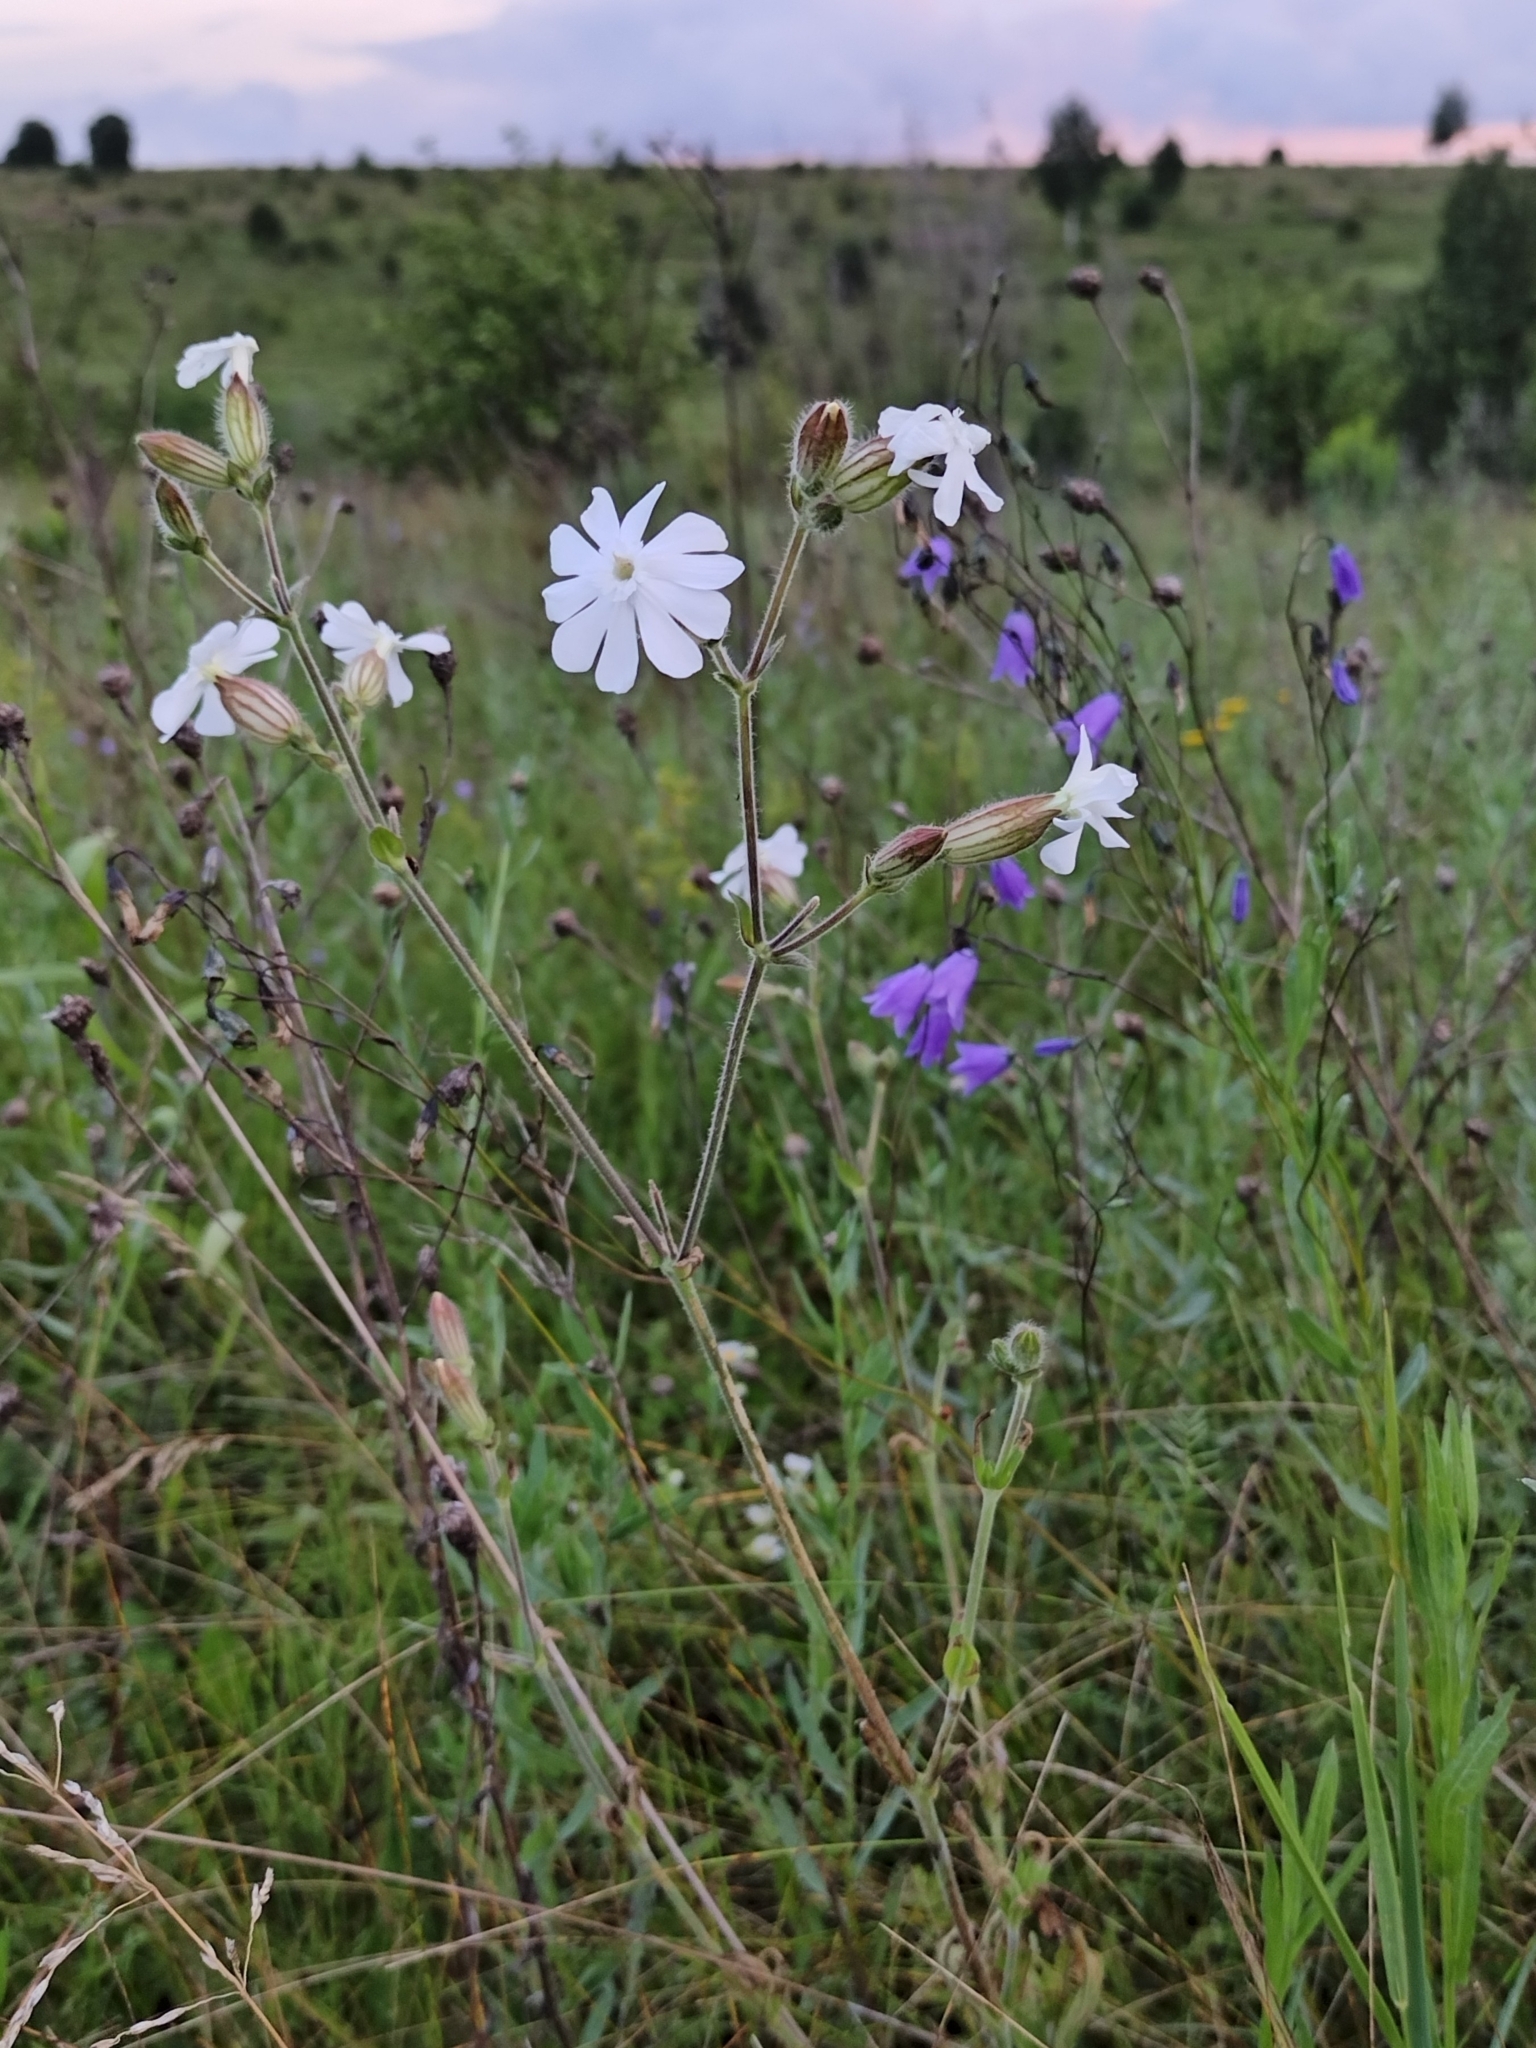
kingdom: Plantae
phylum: Tracheophyta
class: Magnoliopsida
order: Caryophyllales
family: Caryophyllaceae
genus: Silene
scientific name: Silene latifolia
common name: White campion
